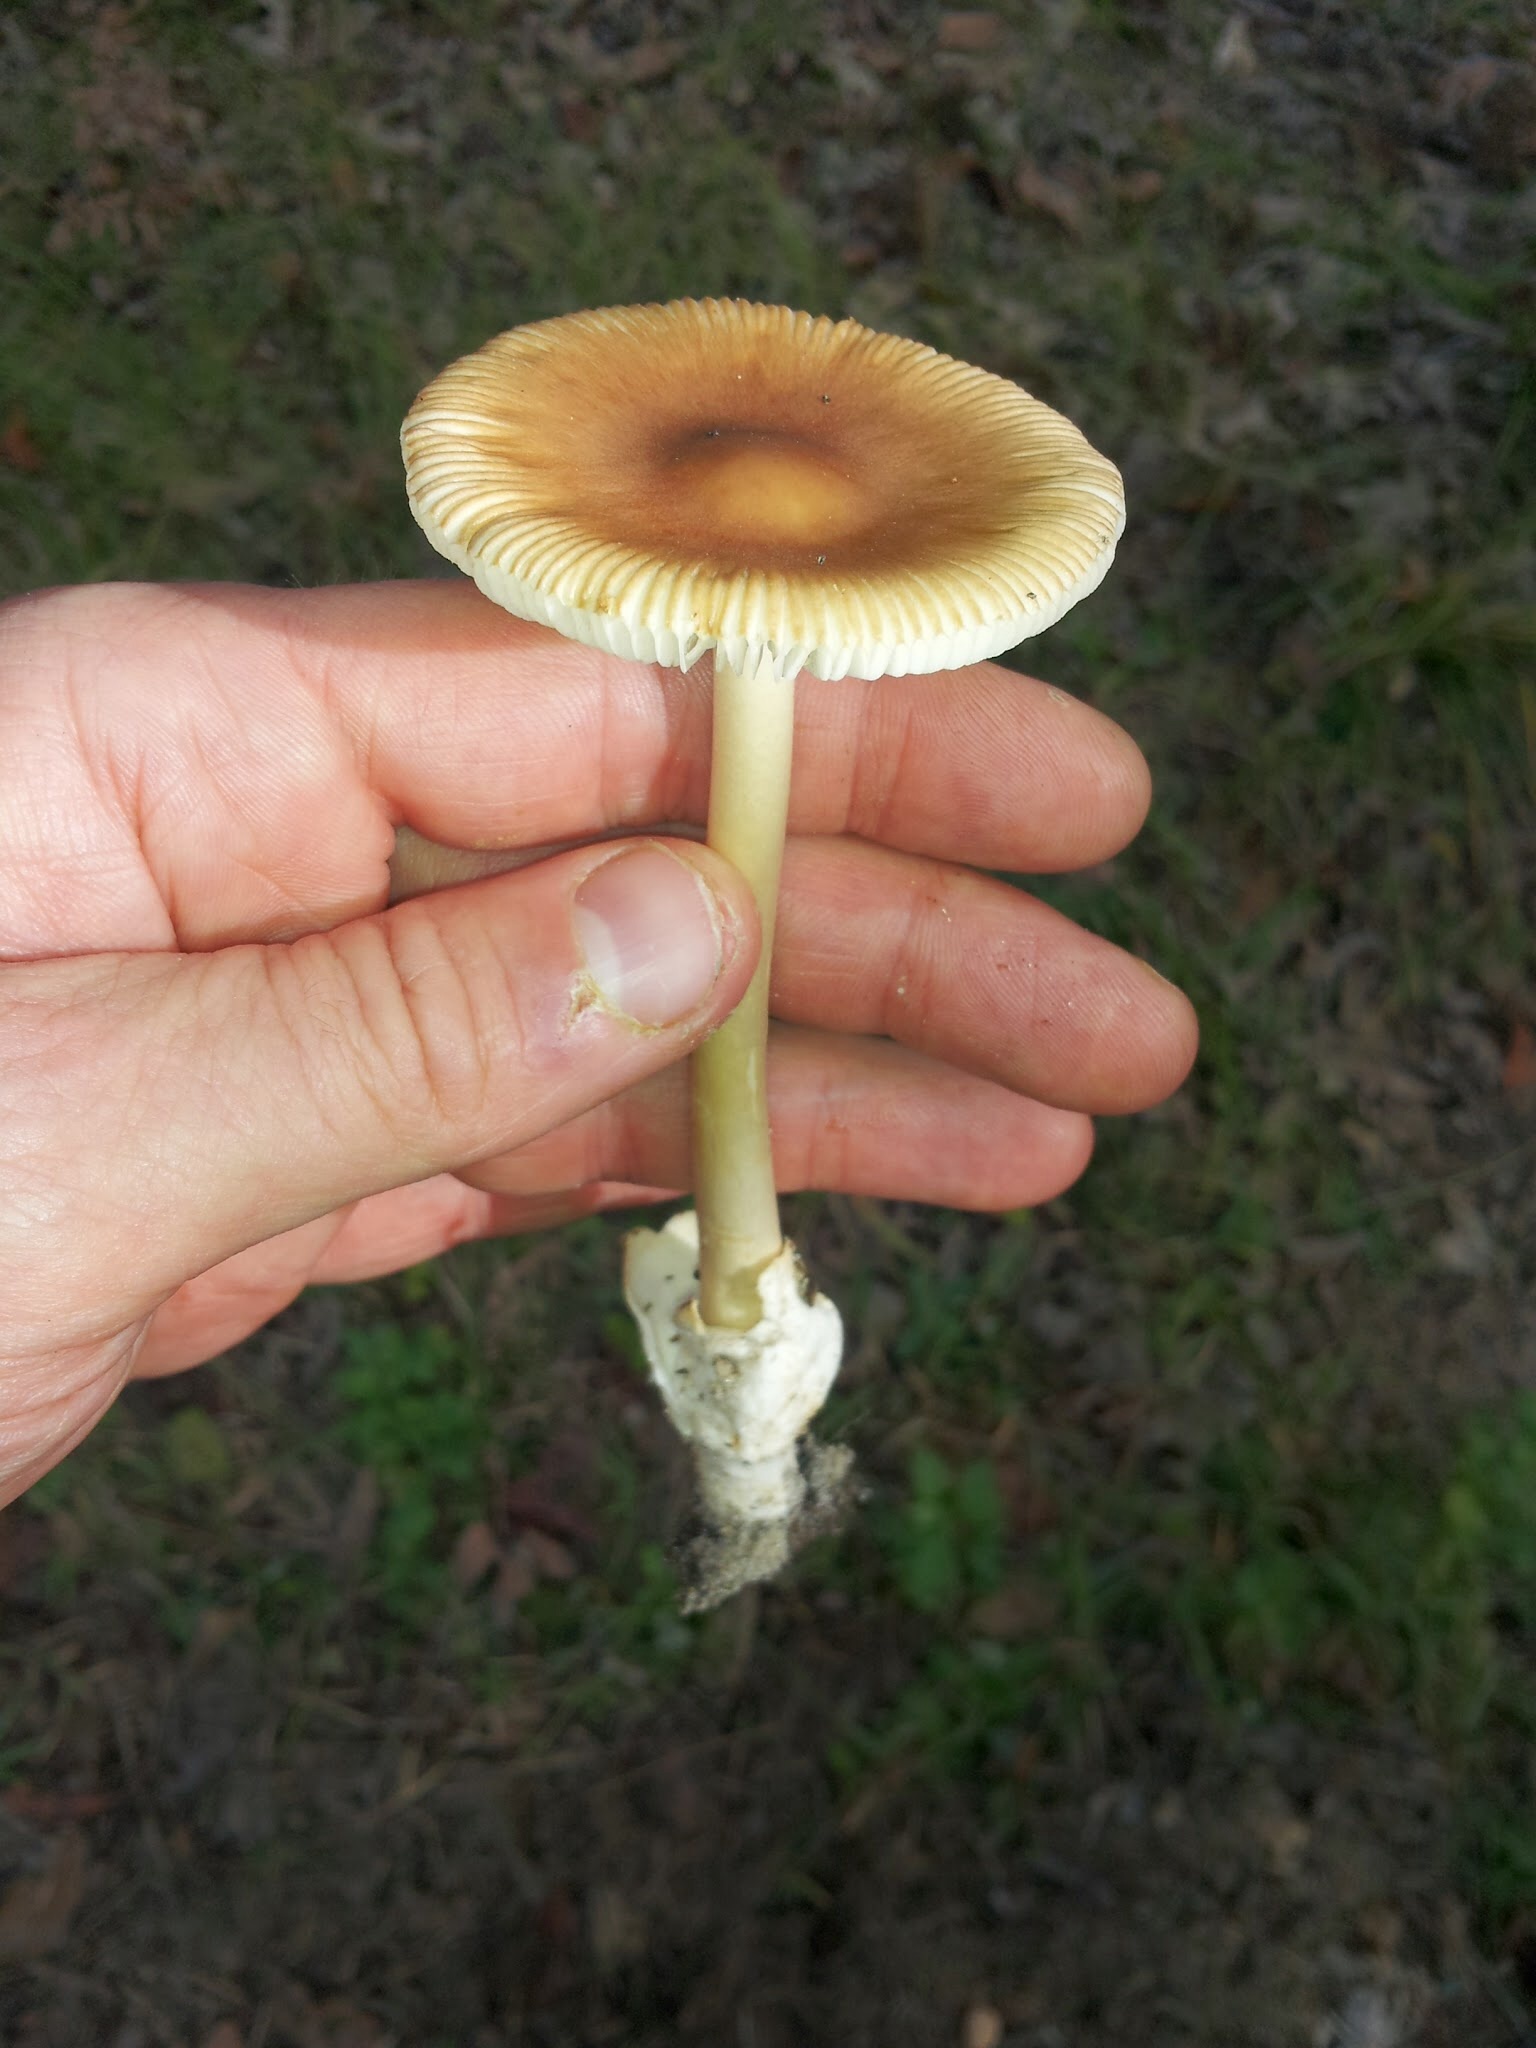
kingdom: Fungi
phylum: Basidiomycota
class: Agaricomycetes
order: Agaricales
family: Amanitaceae
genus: Amanita
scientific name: Amanita fulva
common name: Tawny grisette
